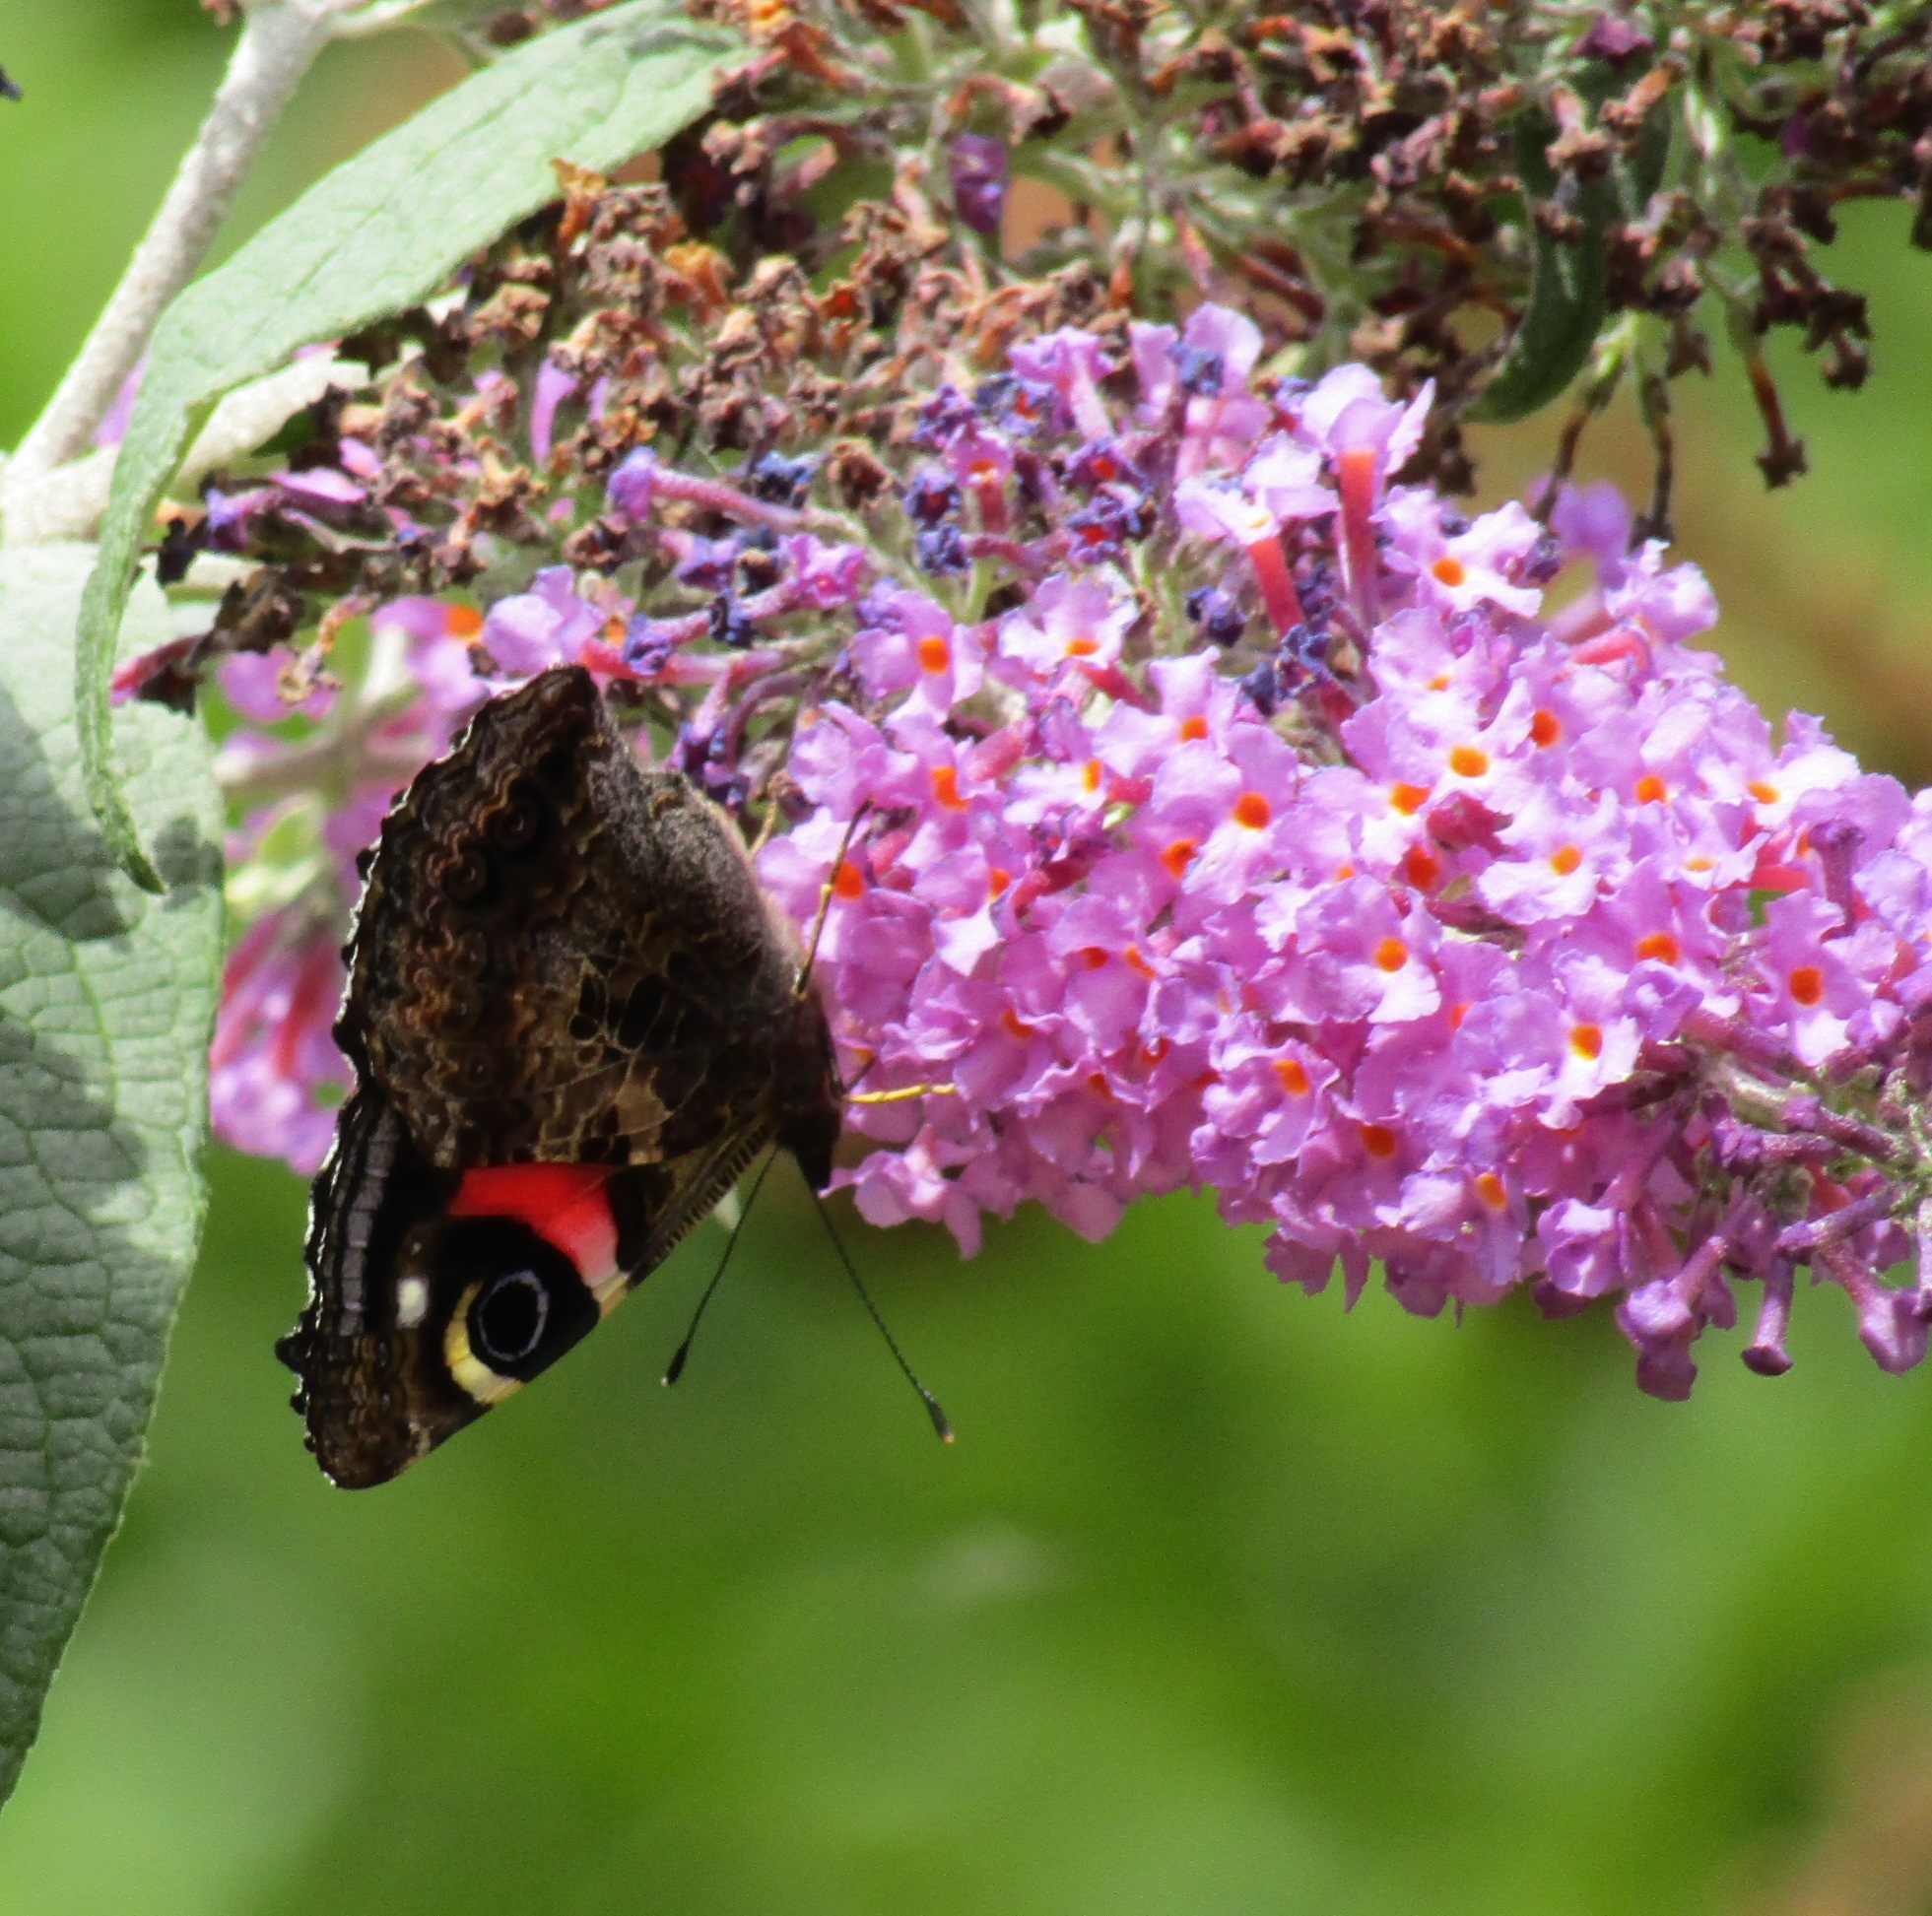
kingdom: Animalia
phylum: Arthropoda
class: Insecta
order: Lepidoptera
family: Nymphalidae
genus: Vanessa
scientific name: Vanessa gonerilla
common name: New zealand red admiral
